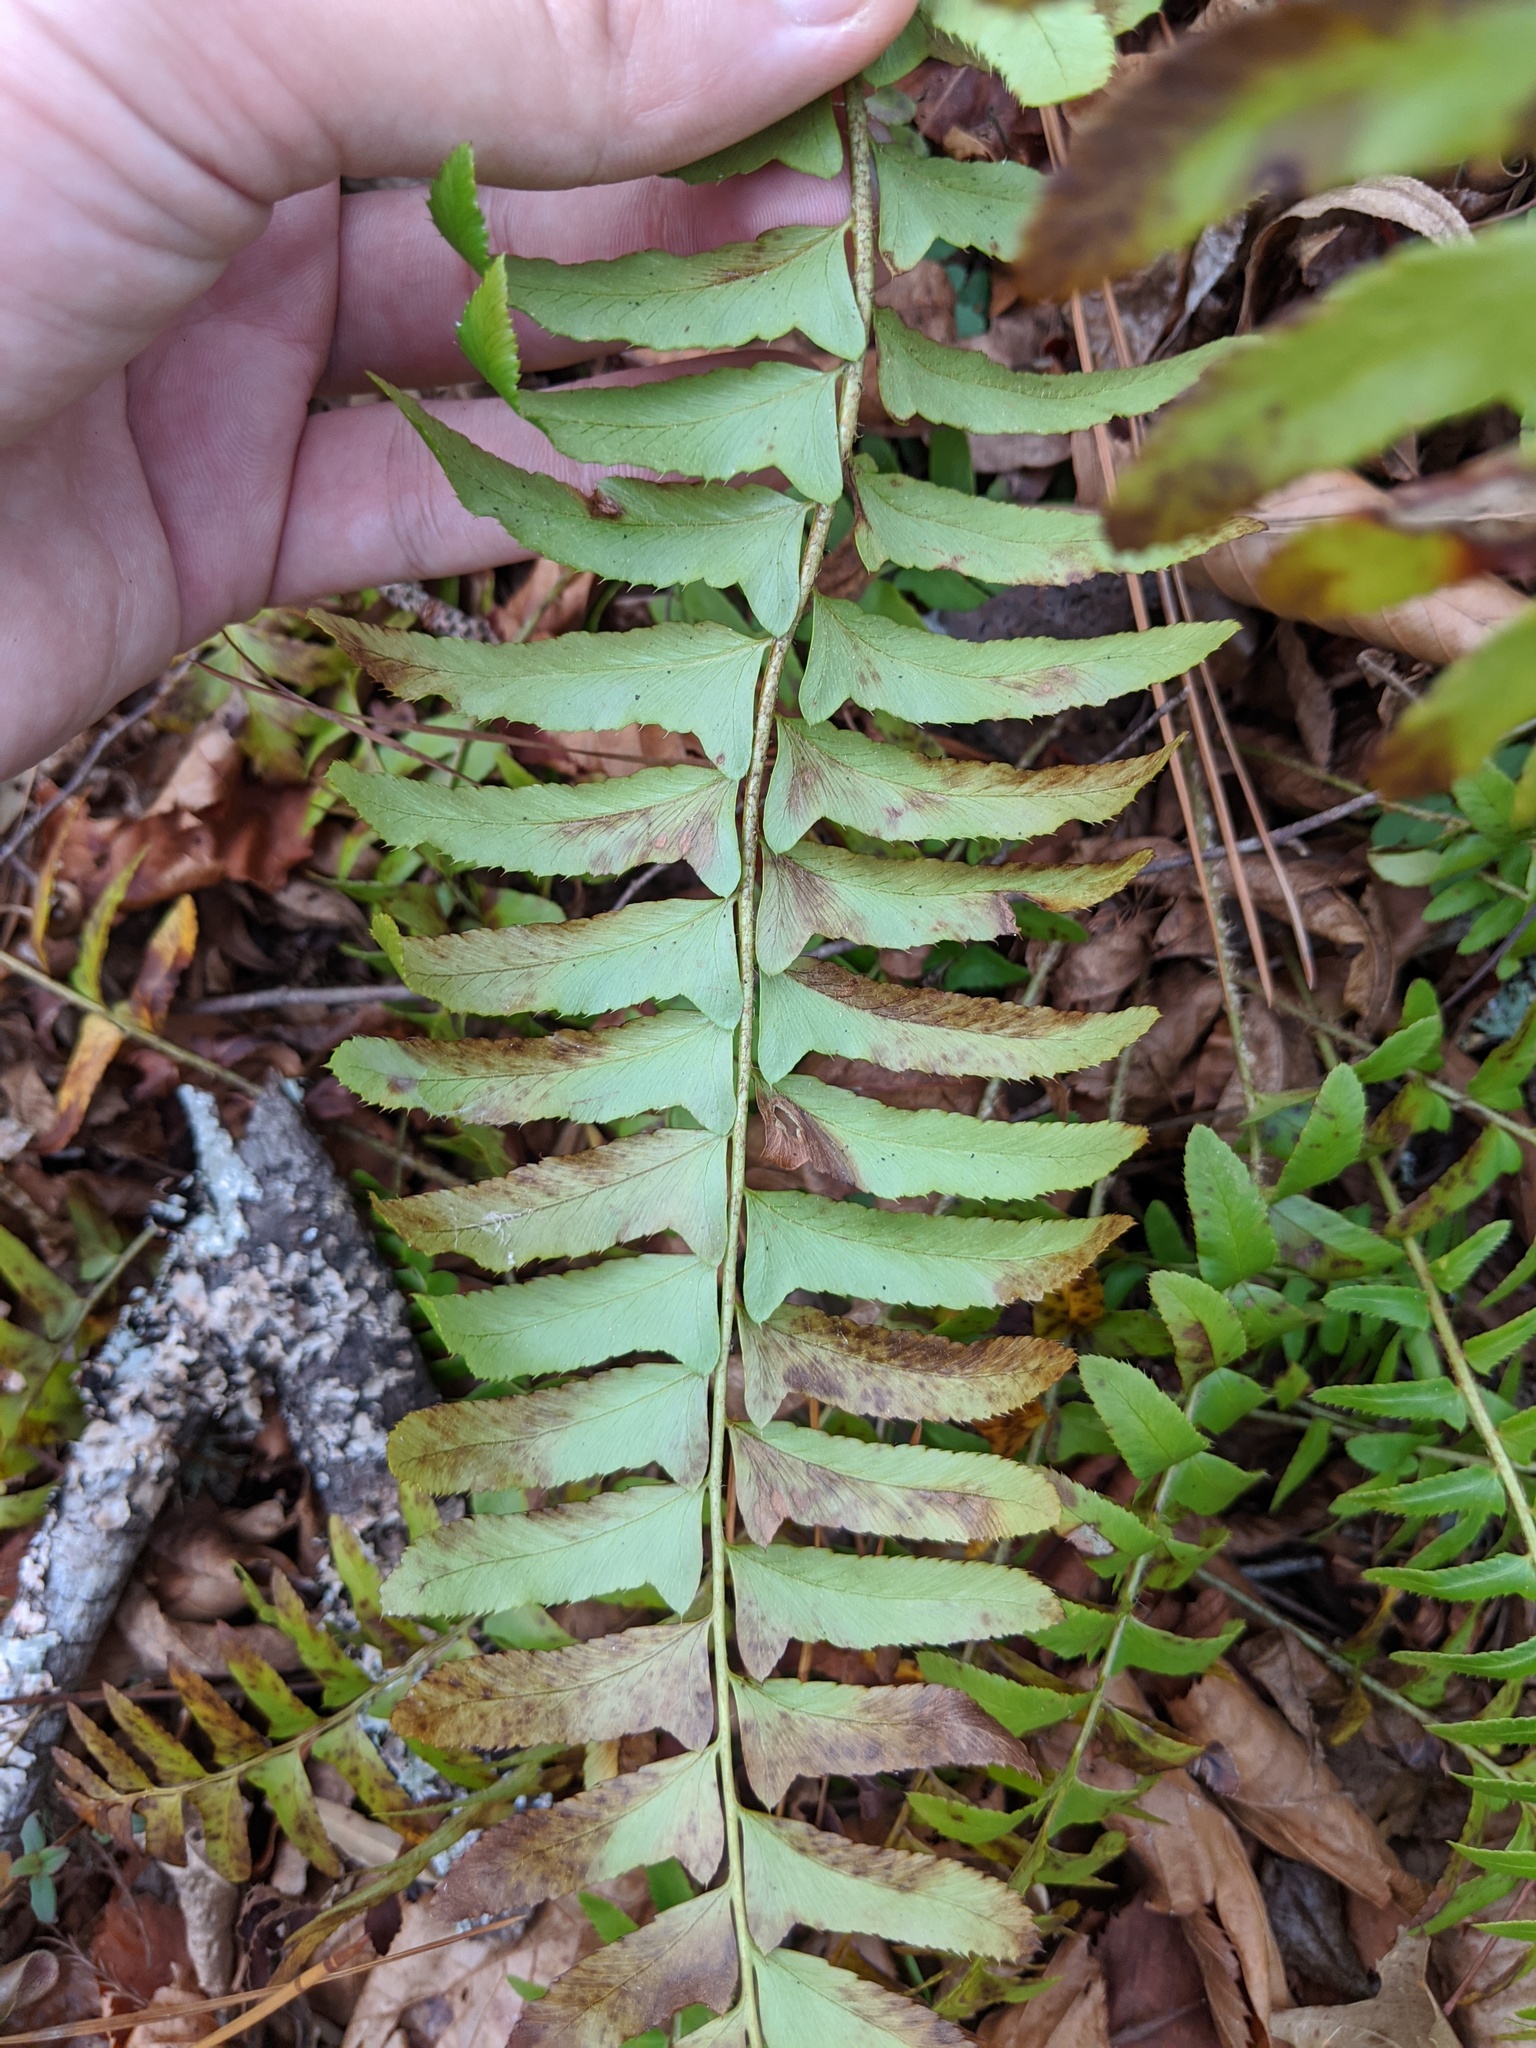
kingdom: Plantae
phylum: Tracheophyta
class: Polypodiopsida
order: Polypodiales
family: Dryopteridaceae
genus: Polystichum
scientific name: Polystichum acrostichoides
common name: Christmas fern
